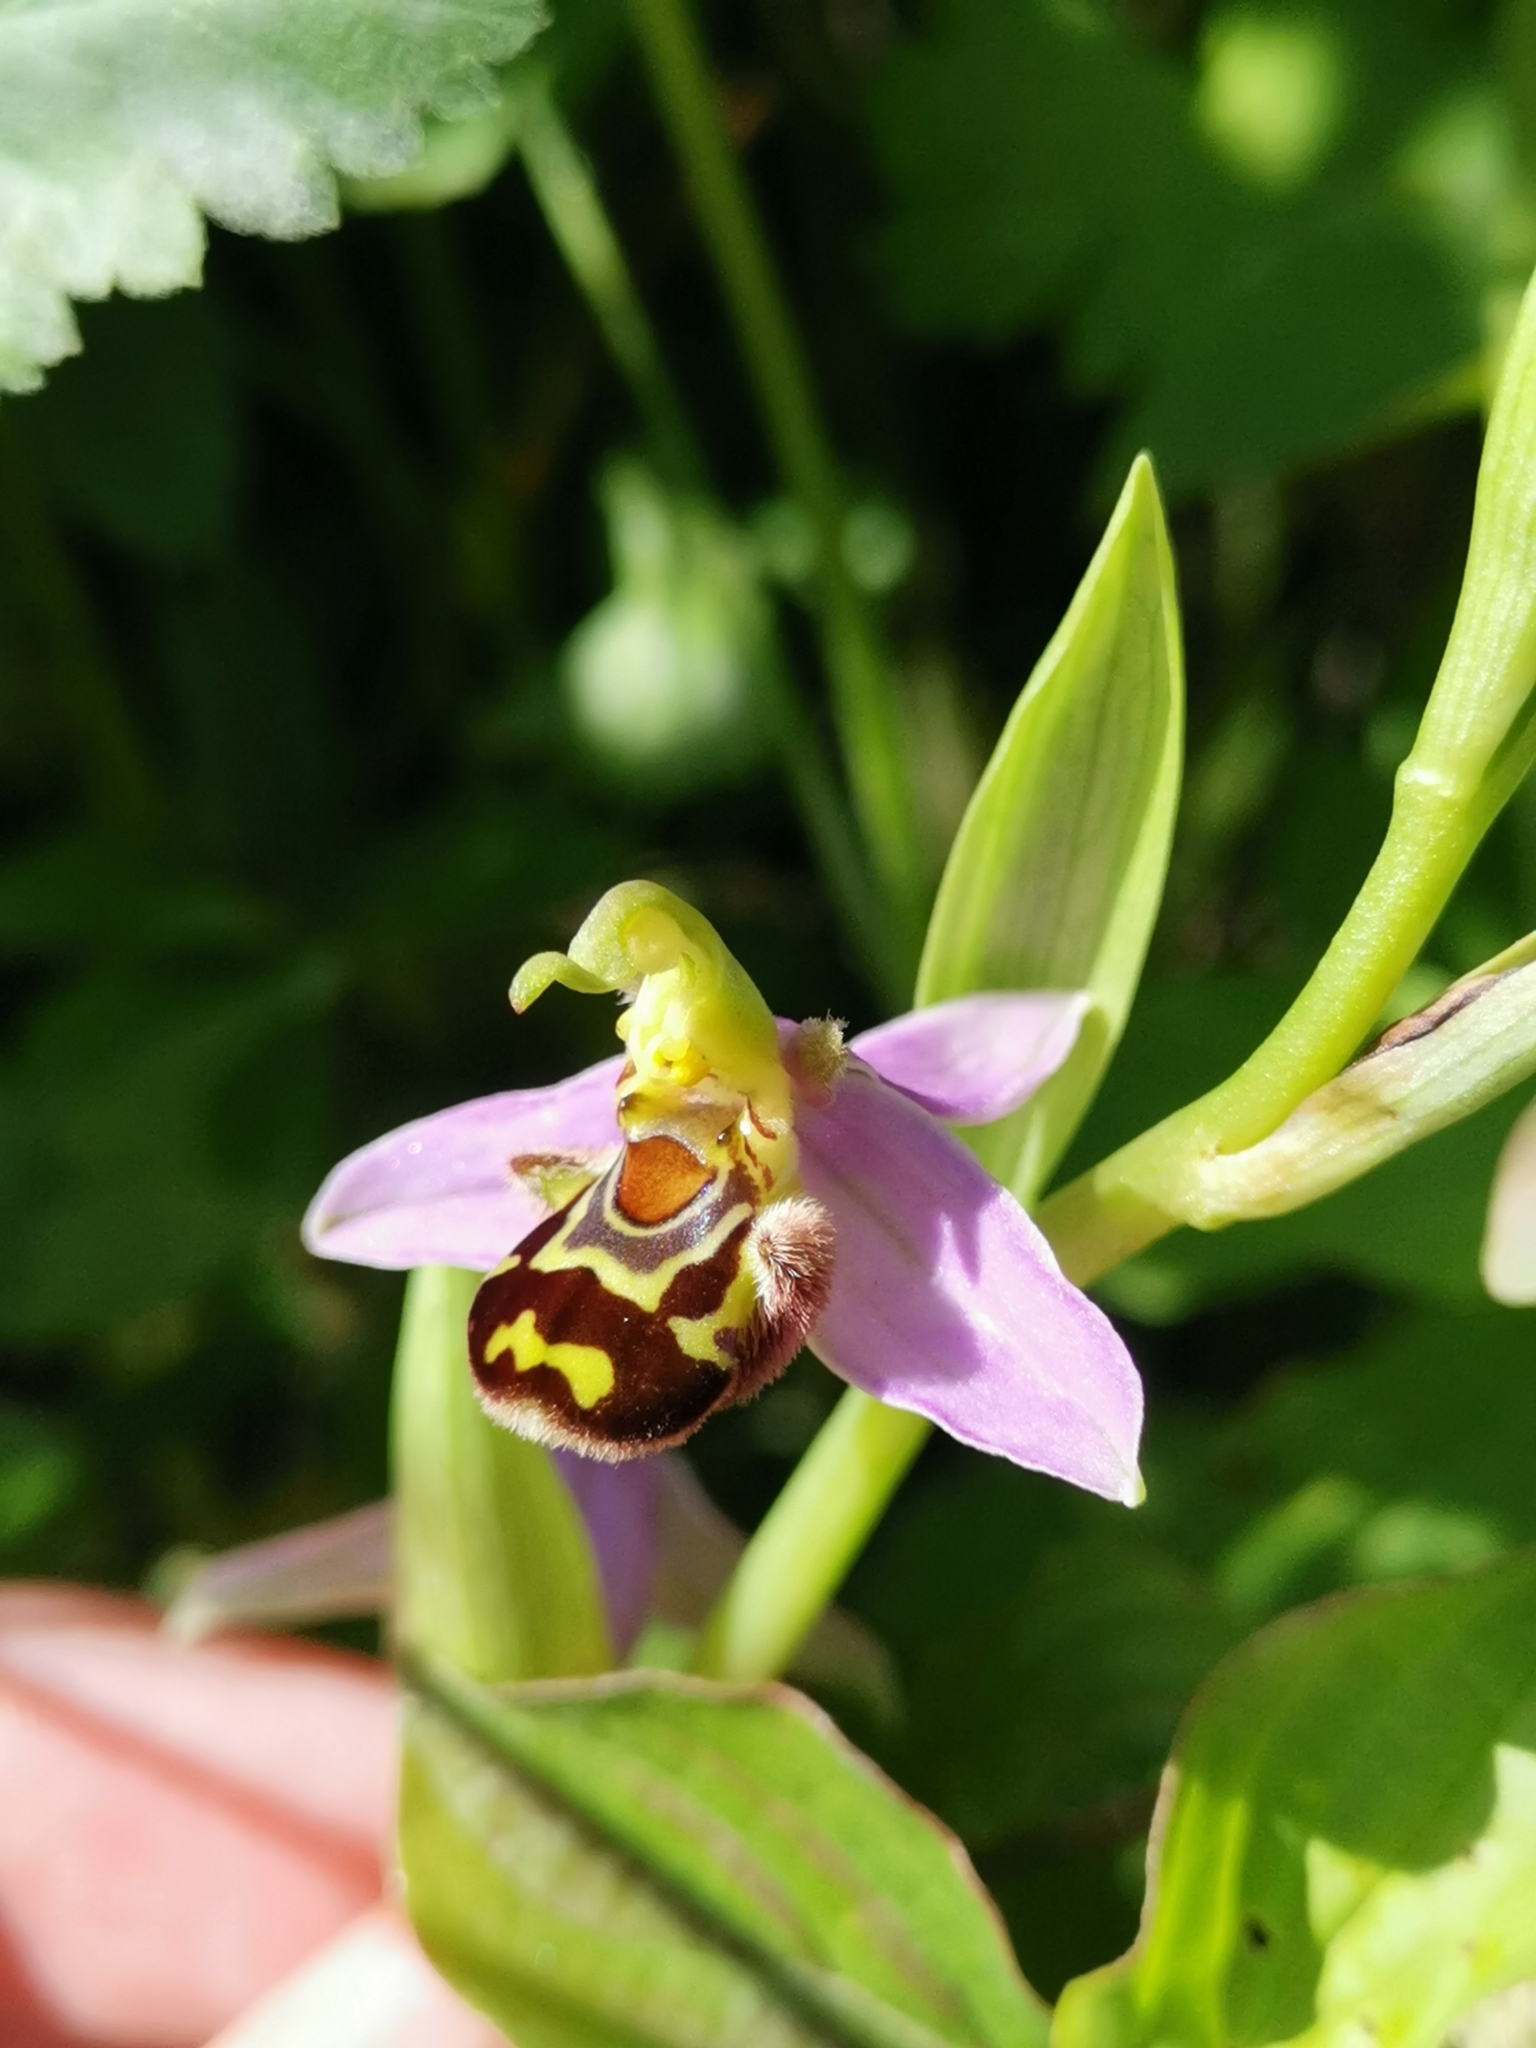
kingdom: Plantae
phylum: Tracheophyta
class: Liliopsida
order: Asparagales
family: Orchidaceae
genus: Ophrys
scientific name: Ophrys apifera
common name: Bee orchid
